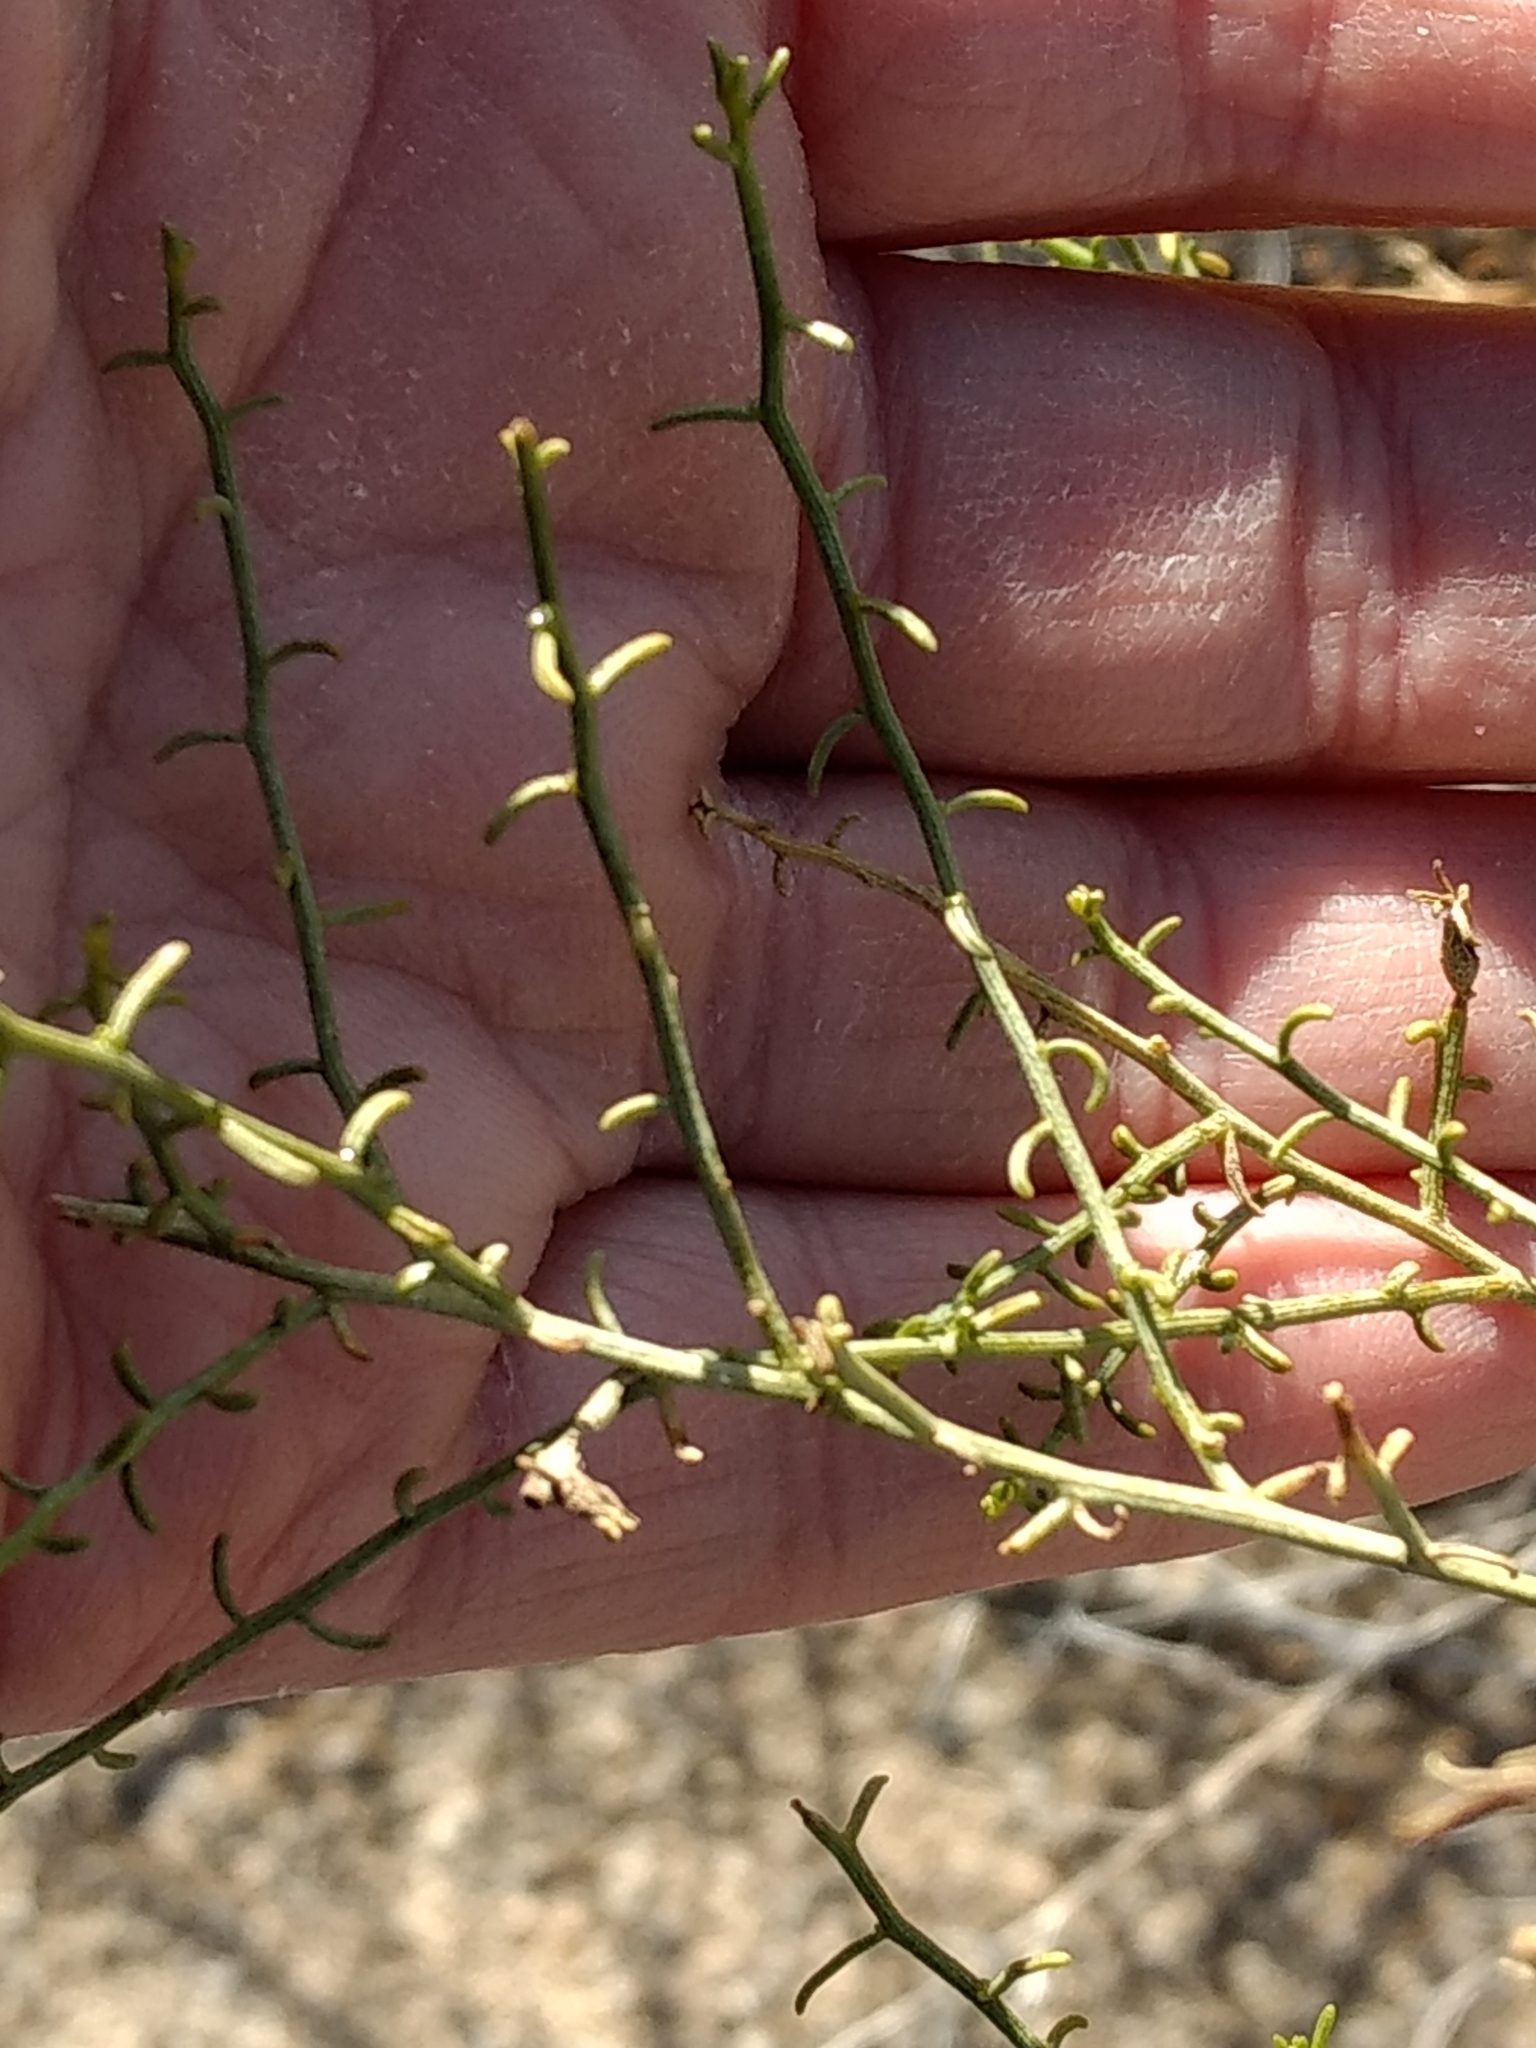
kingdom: Plantae
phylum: Tracheophyta
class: Magnoliopsida
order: Asterales
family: Asteraceae
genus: Ambrosia
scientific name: Ambrosia salsola
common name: Burrobrush
